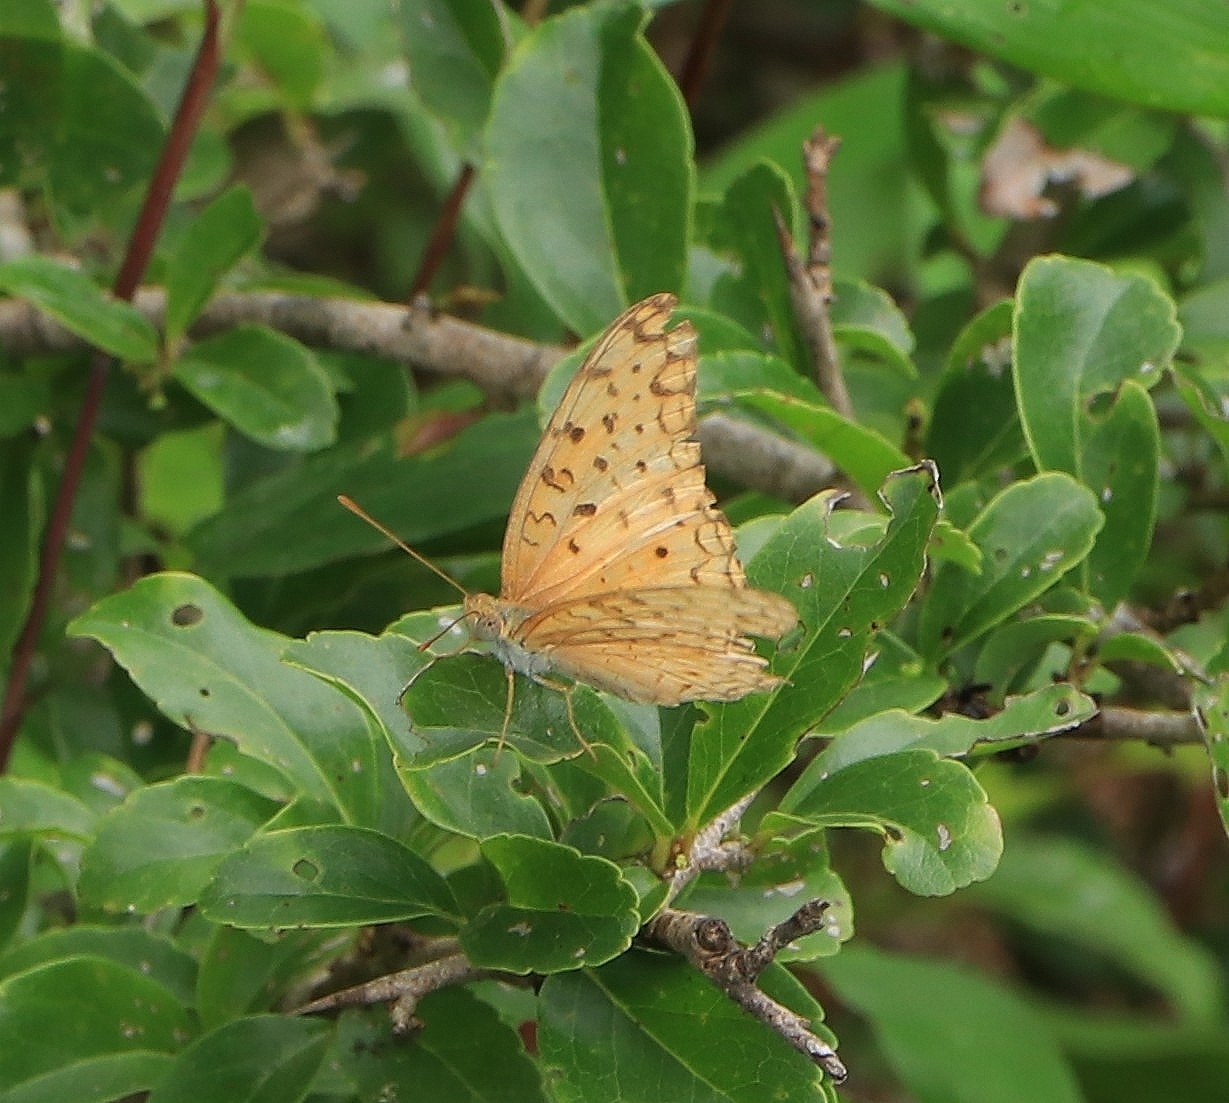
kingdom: Animalia
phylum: Arthropoda
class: Insecta
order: Lepidoptera
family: Nymphalidae
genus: Phalanta
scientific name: Phalanta phalantha
